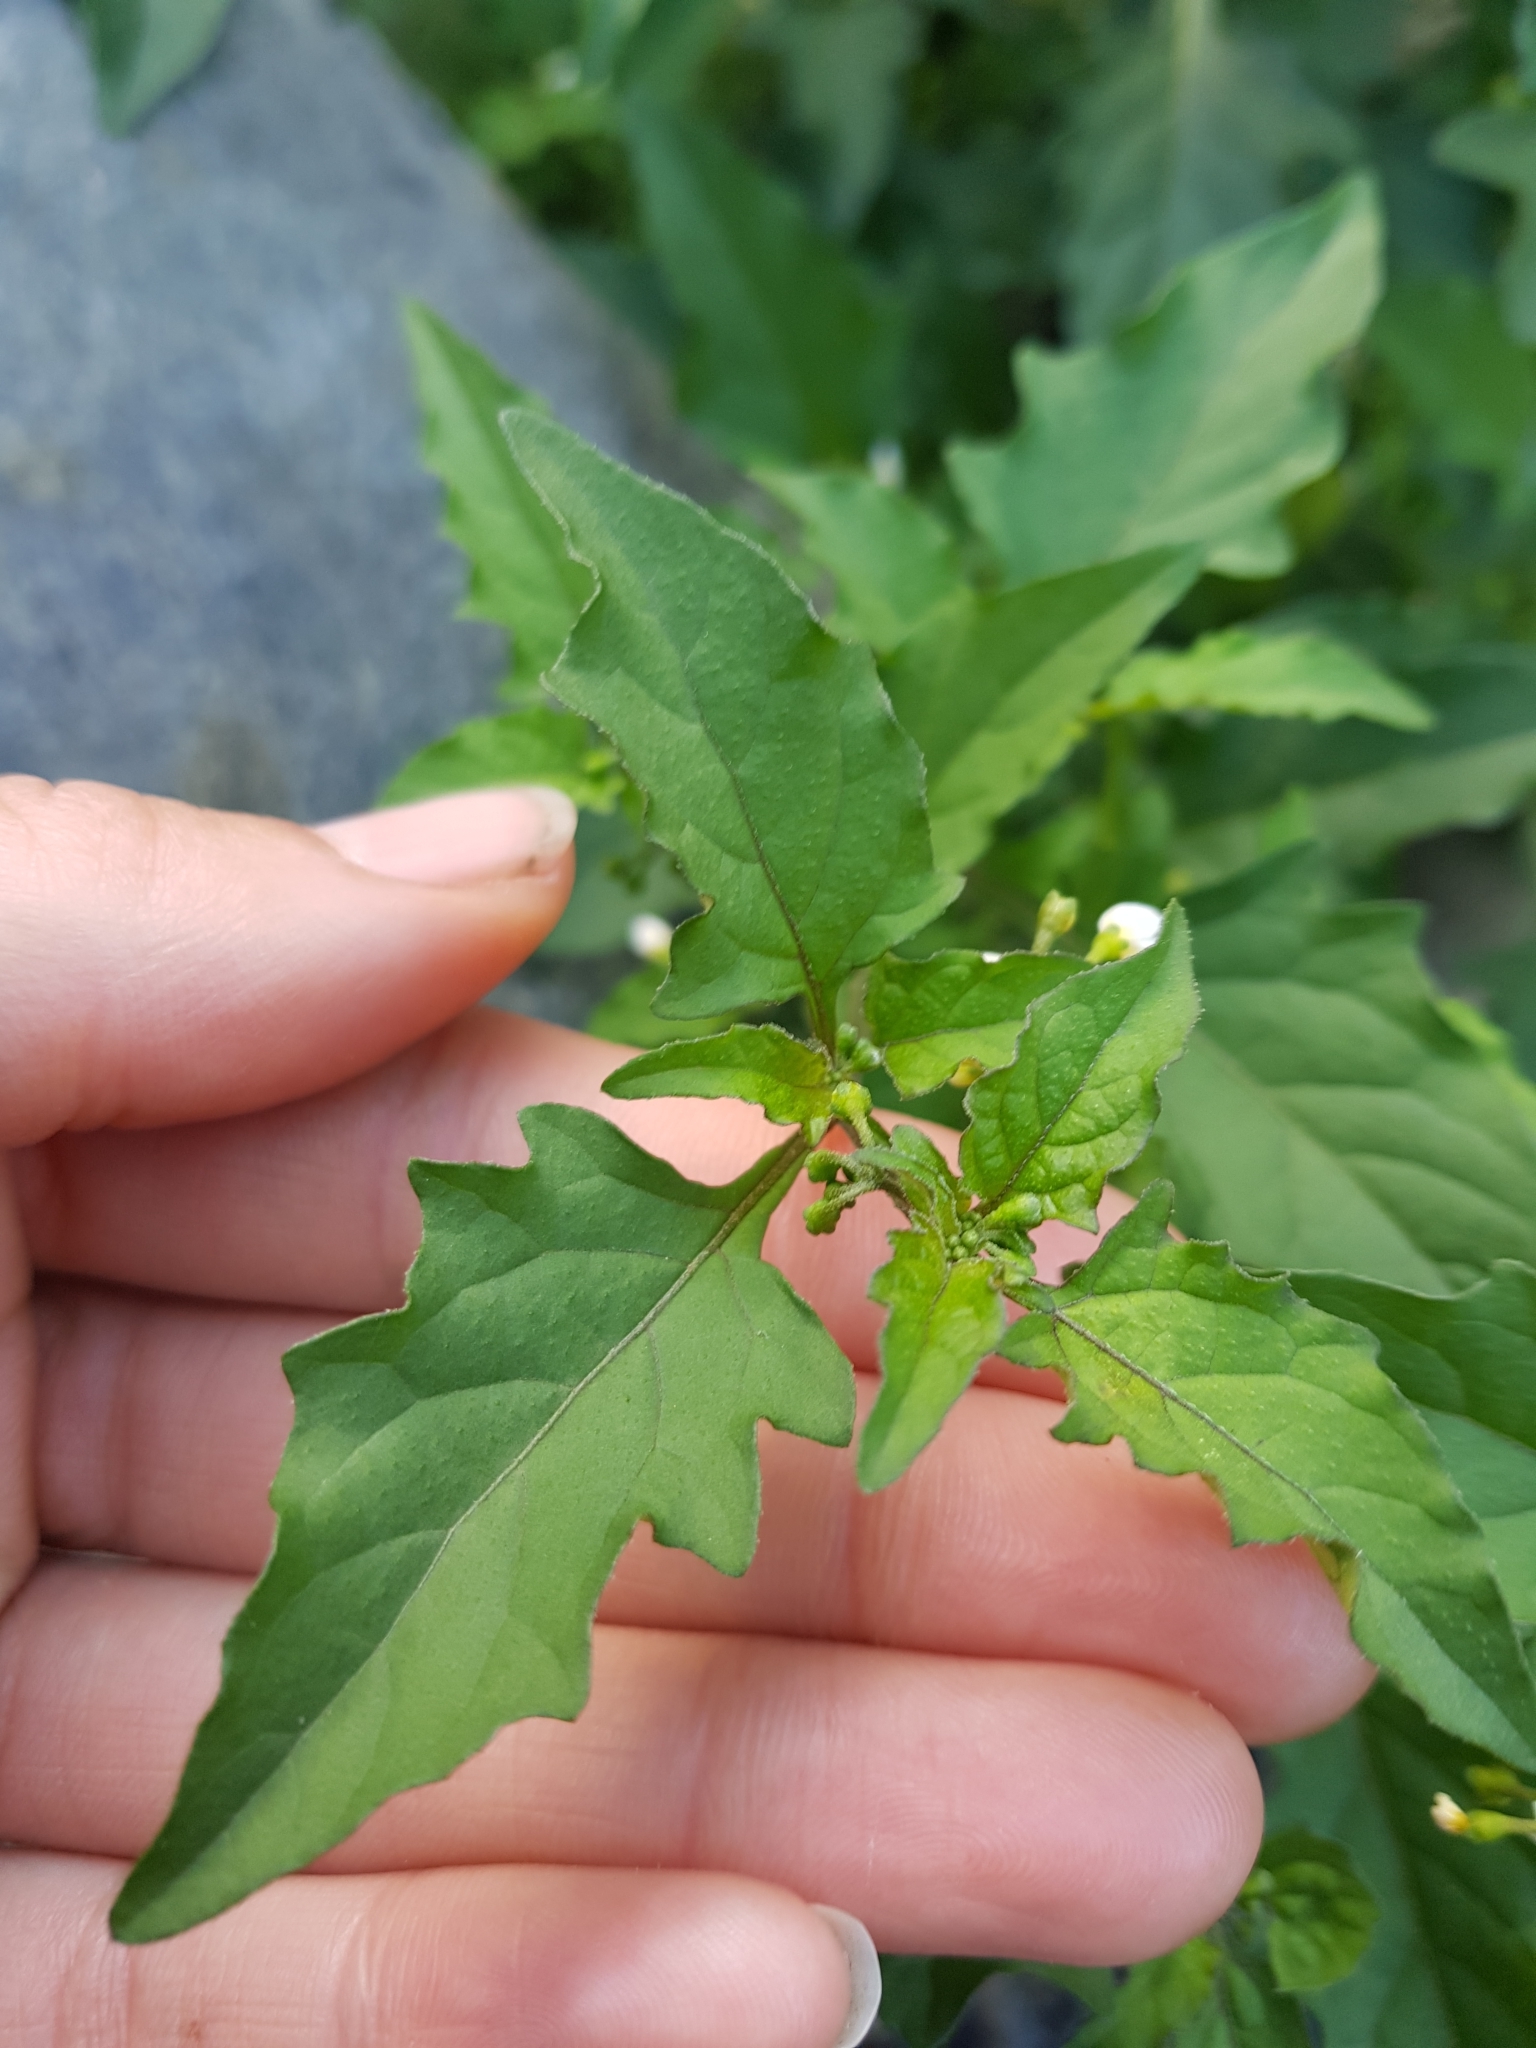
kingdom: Plantae
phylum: Tracheophyta
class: Magnoliopsida
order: Solanales
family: Solanaceae
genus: Solanum
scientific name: Solanum americanum
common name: American black nightshade
